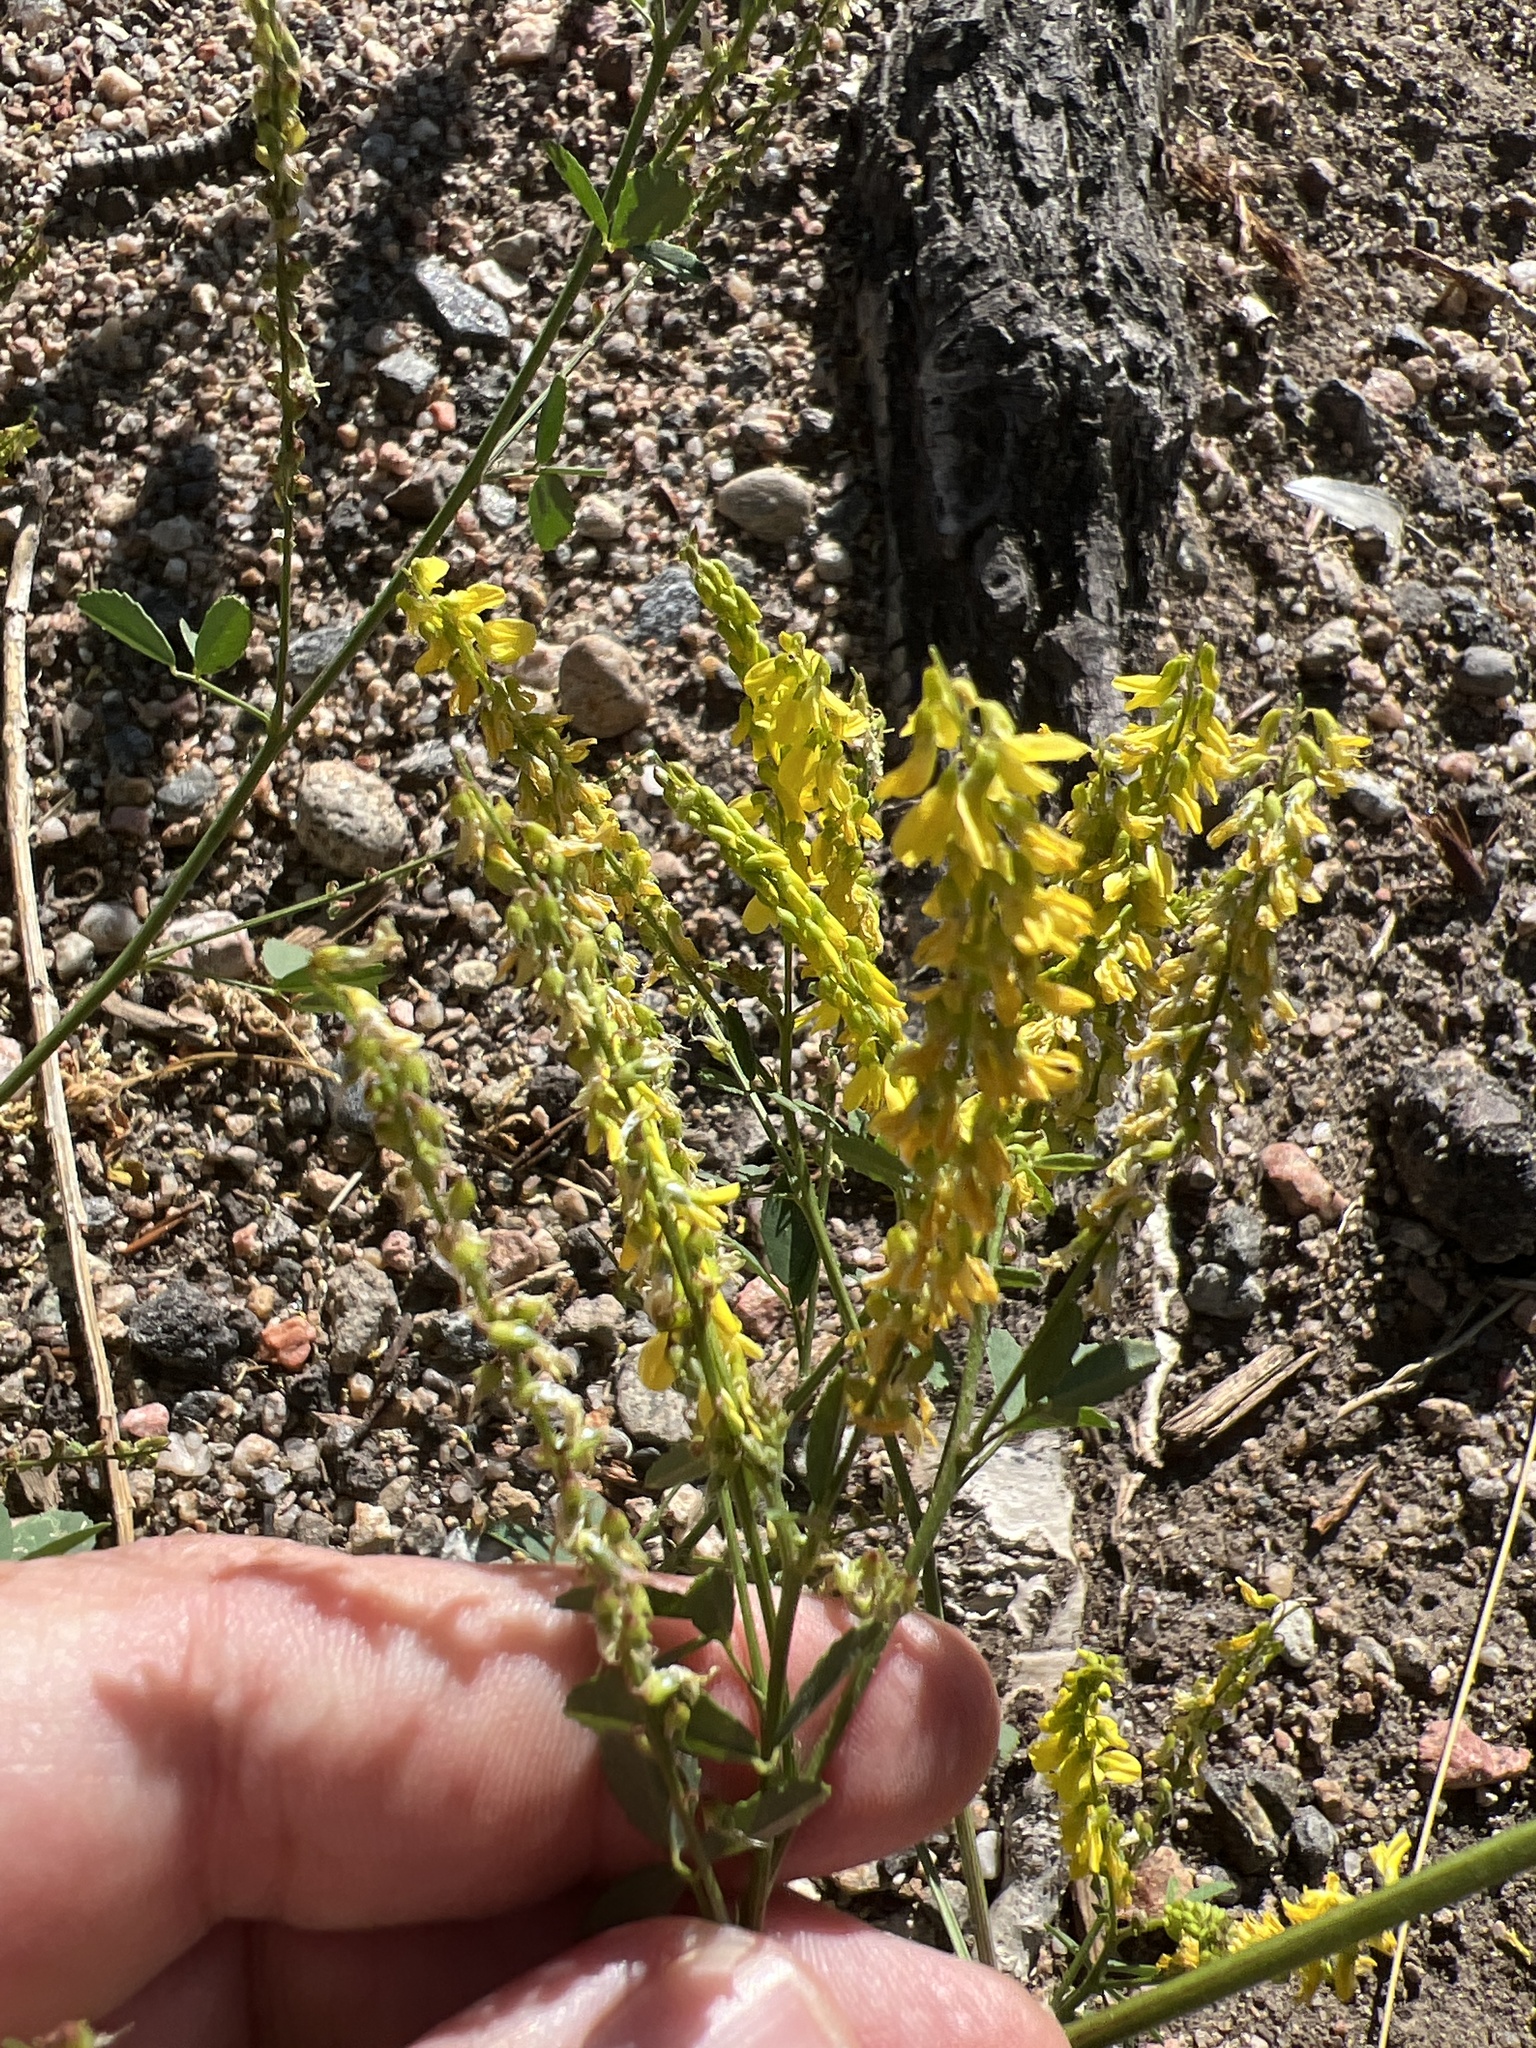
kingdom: Plantae
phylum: Tracheophyta
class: Magnoliopsida
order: Fabales
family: Fabaceae
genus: Melilotus
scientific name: Melilotus officinalis
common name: Sweetclover
